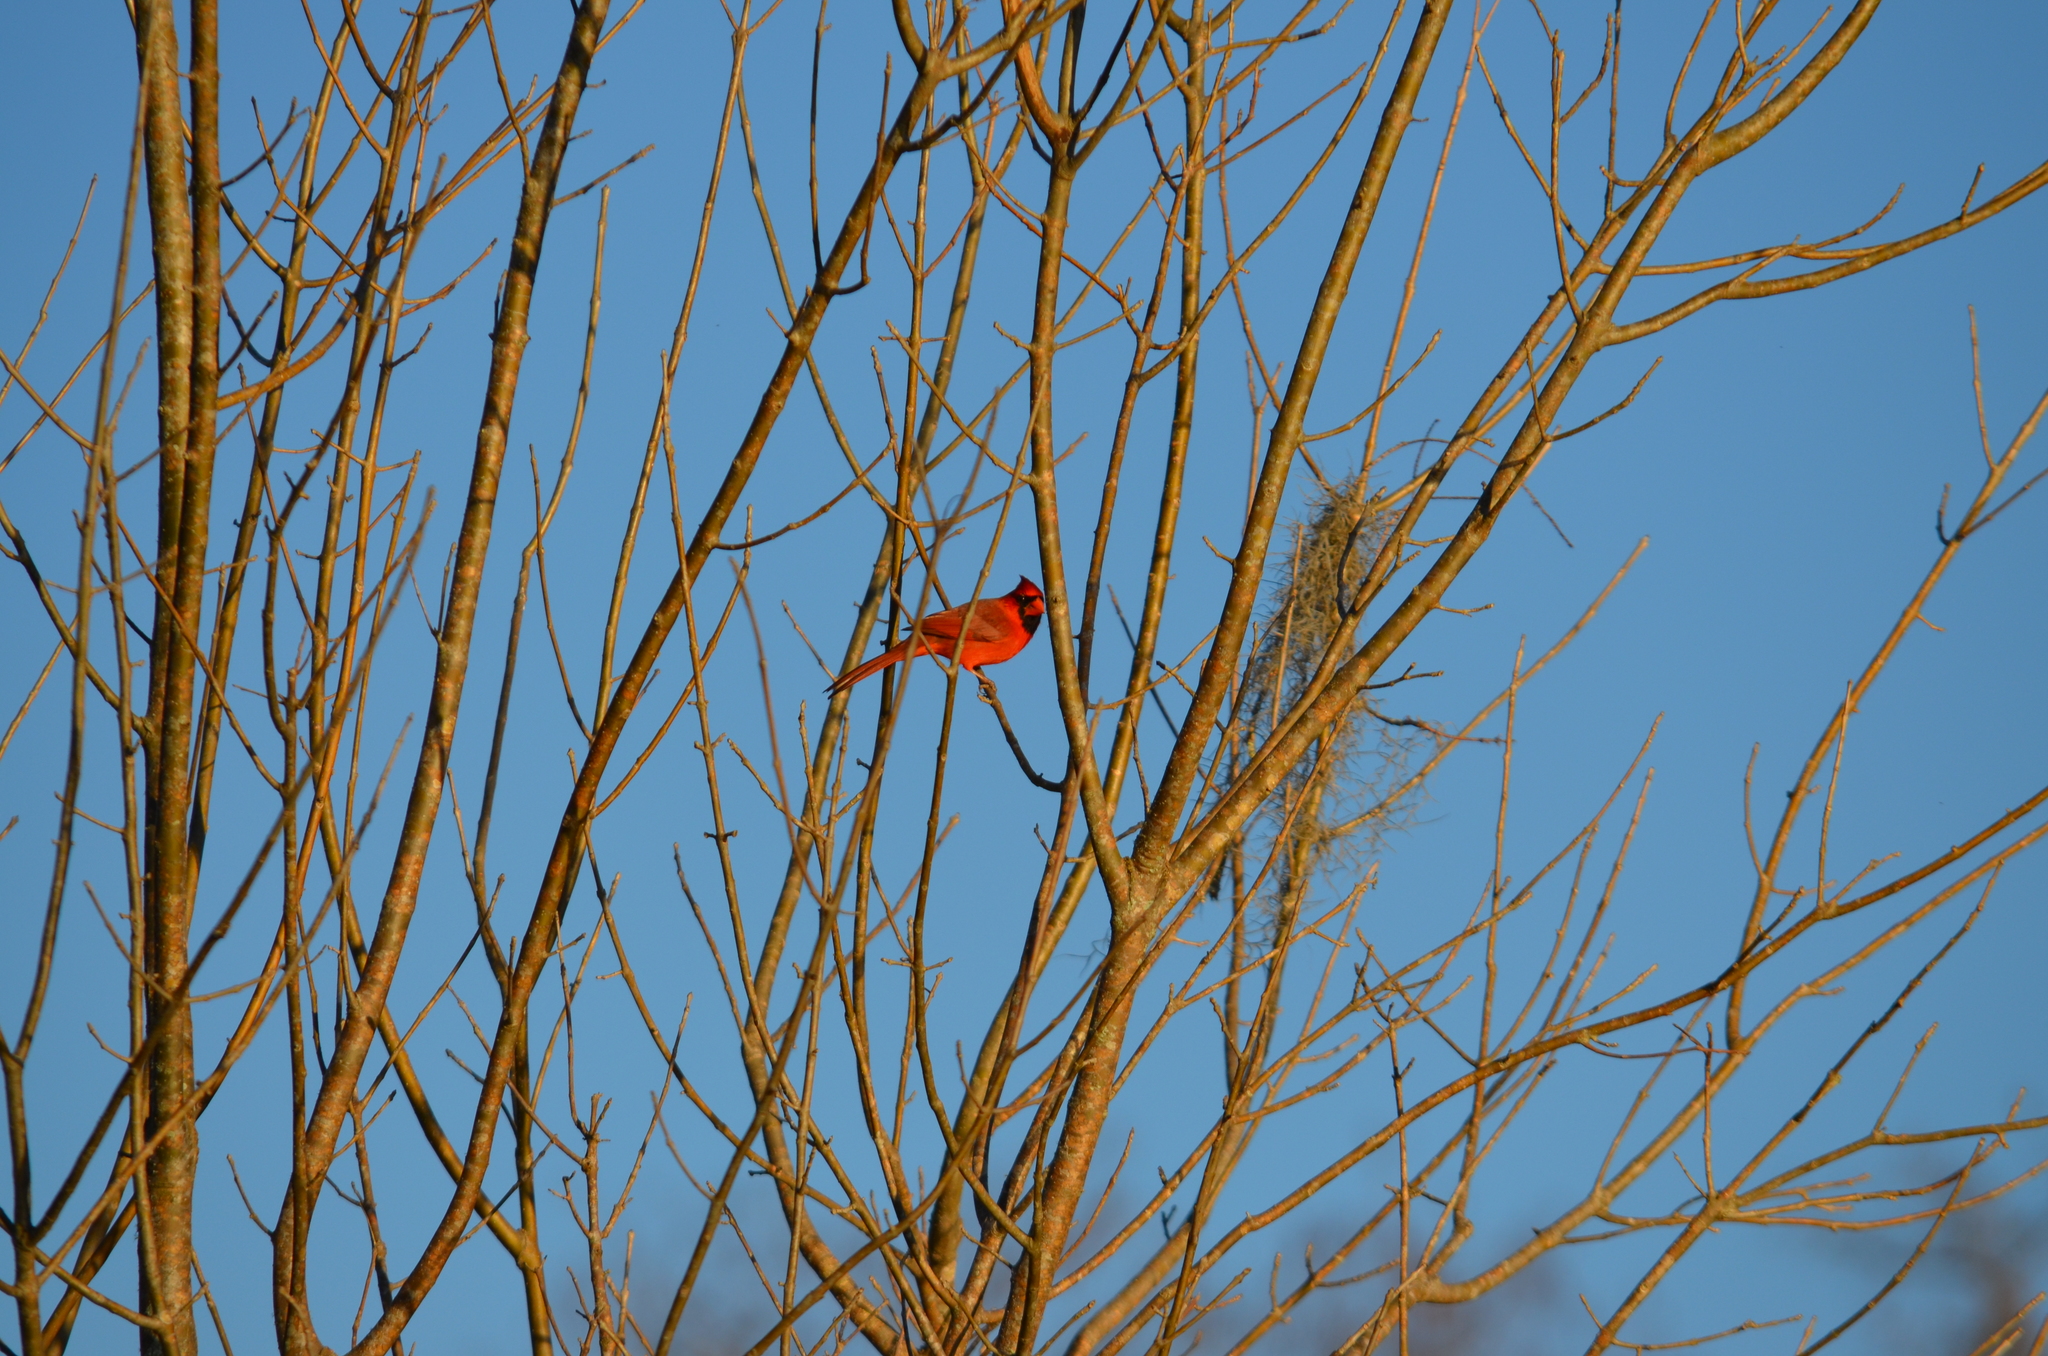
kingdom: Animalia
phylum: Chordata
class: Aves
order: Passeriformes
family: Cardinalidae
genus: Cardinalis
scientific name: Cardinalis cardinalis
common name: Northern cardinal
